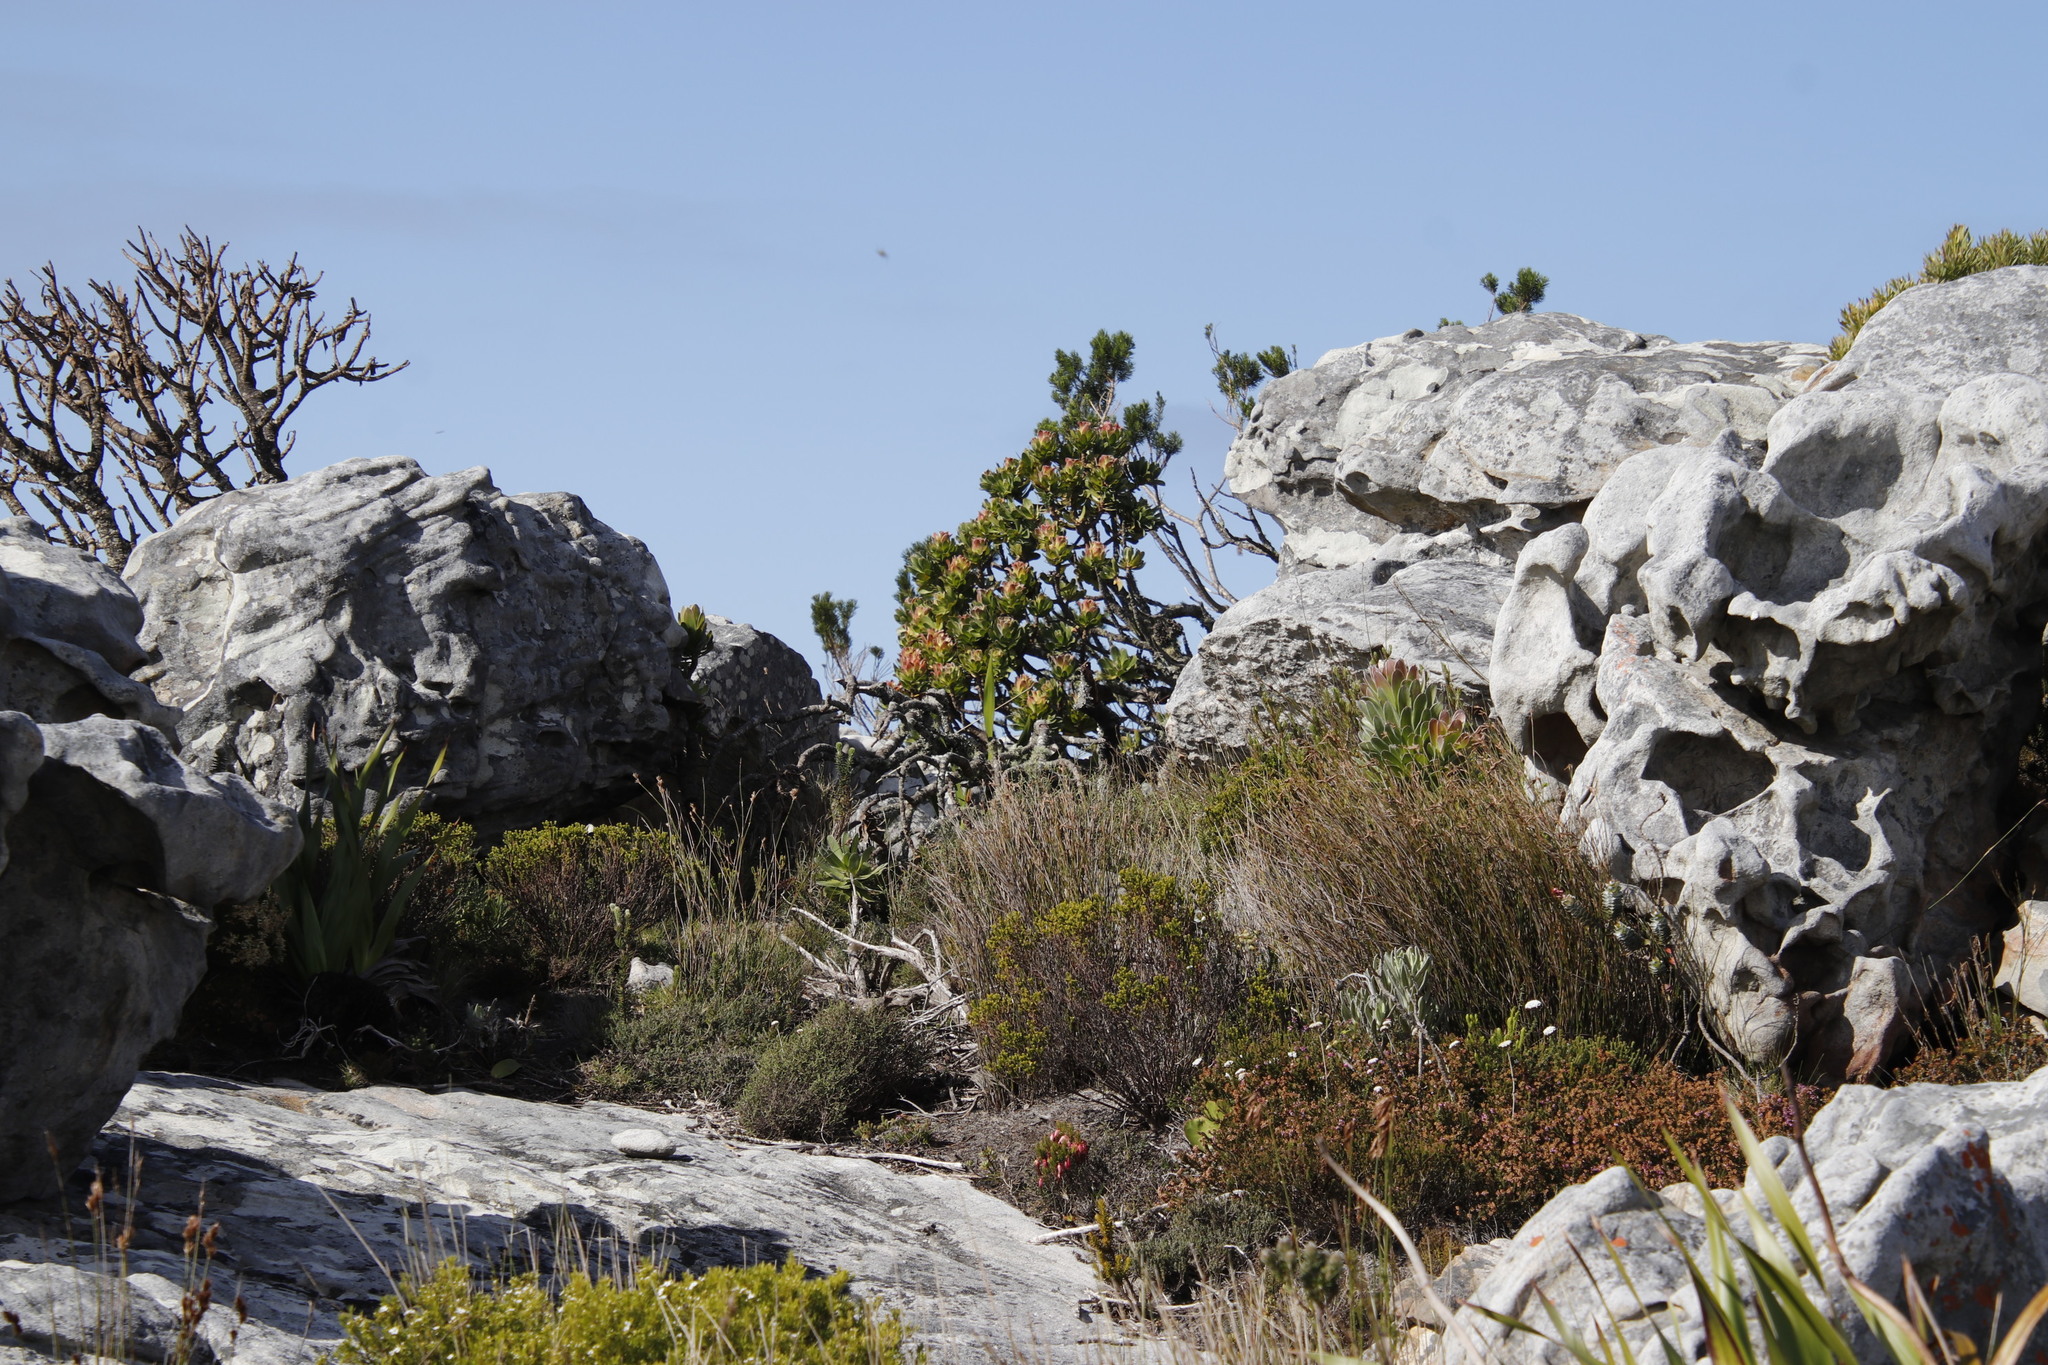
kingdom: Plantae
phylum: Tracheophyta
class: Magnoliopsida
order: Proteales
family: Proteaceae
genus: Mimetes
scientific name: Mimetes fimbriifolius
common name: Fringed bottlebrush
